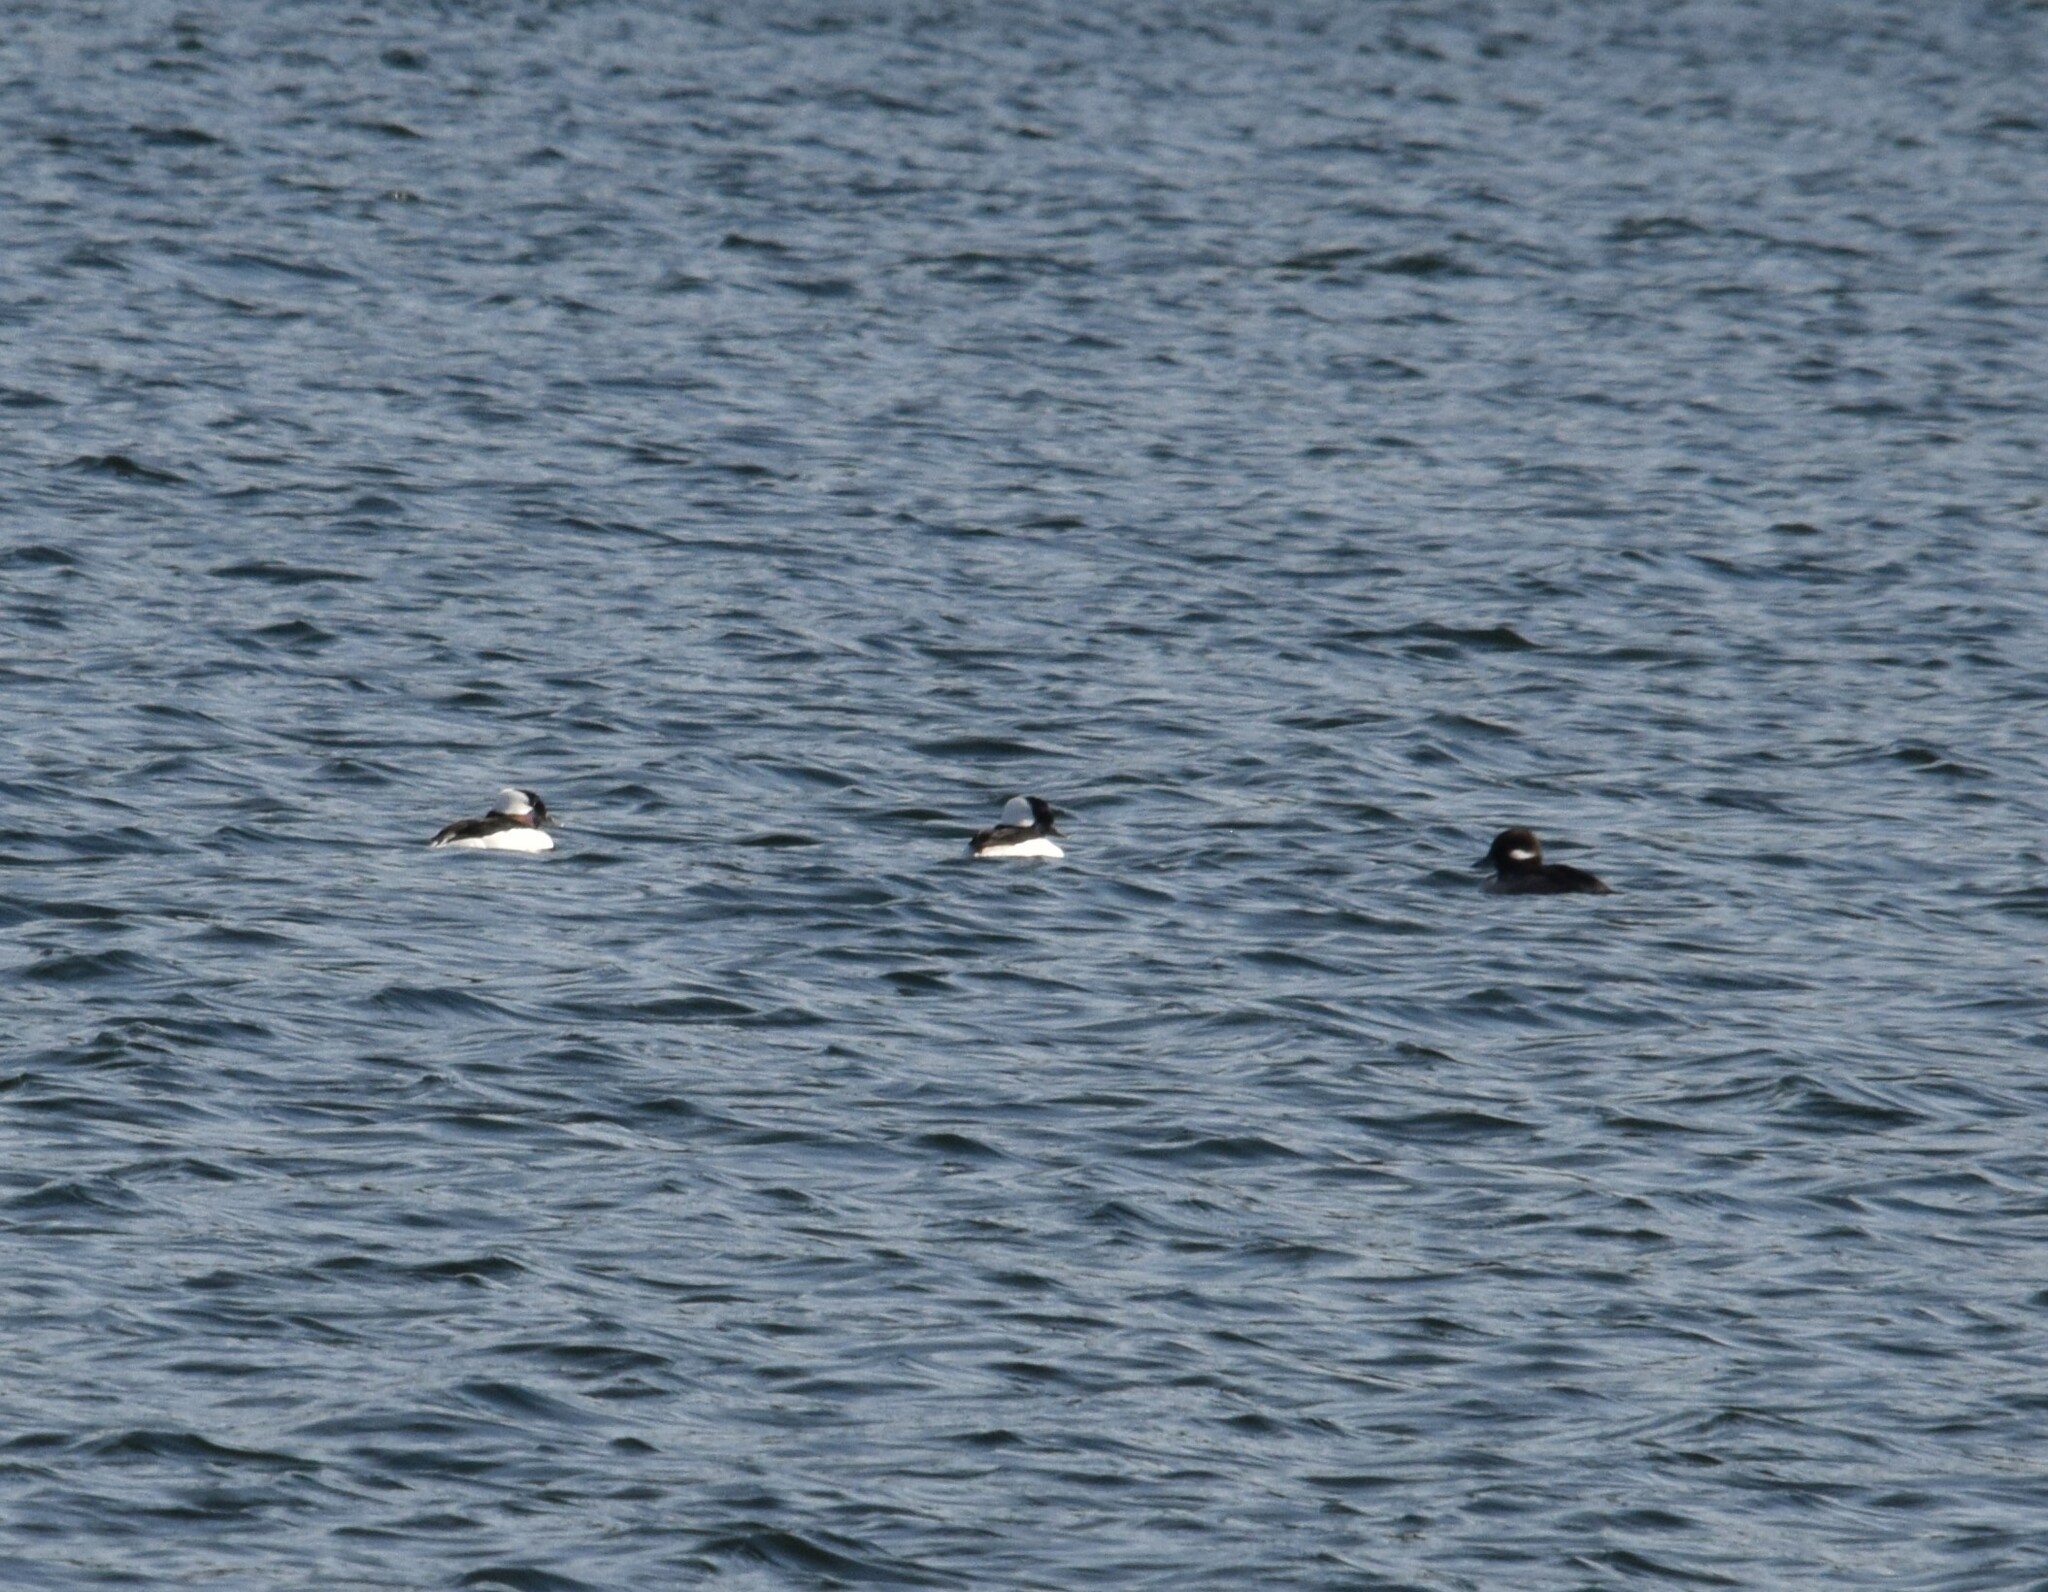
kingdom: Animalia
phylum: Chordata
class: Aves
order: Anseriformes
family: Anatidae
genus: Bucephala
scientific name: Bucephala albeola
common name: Bufflehead
